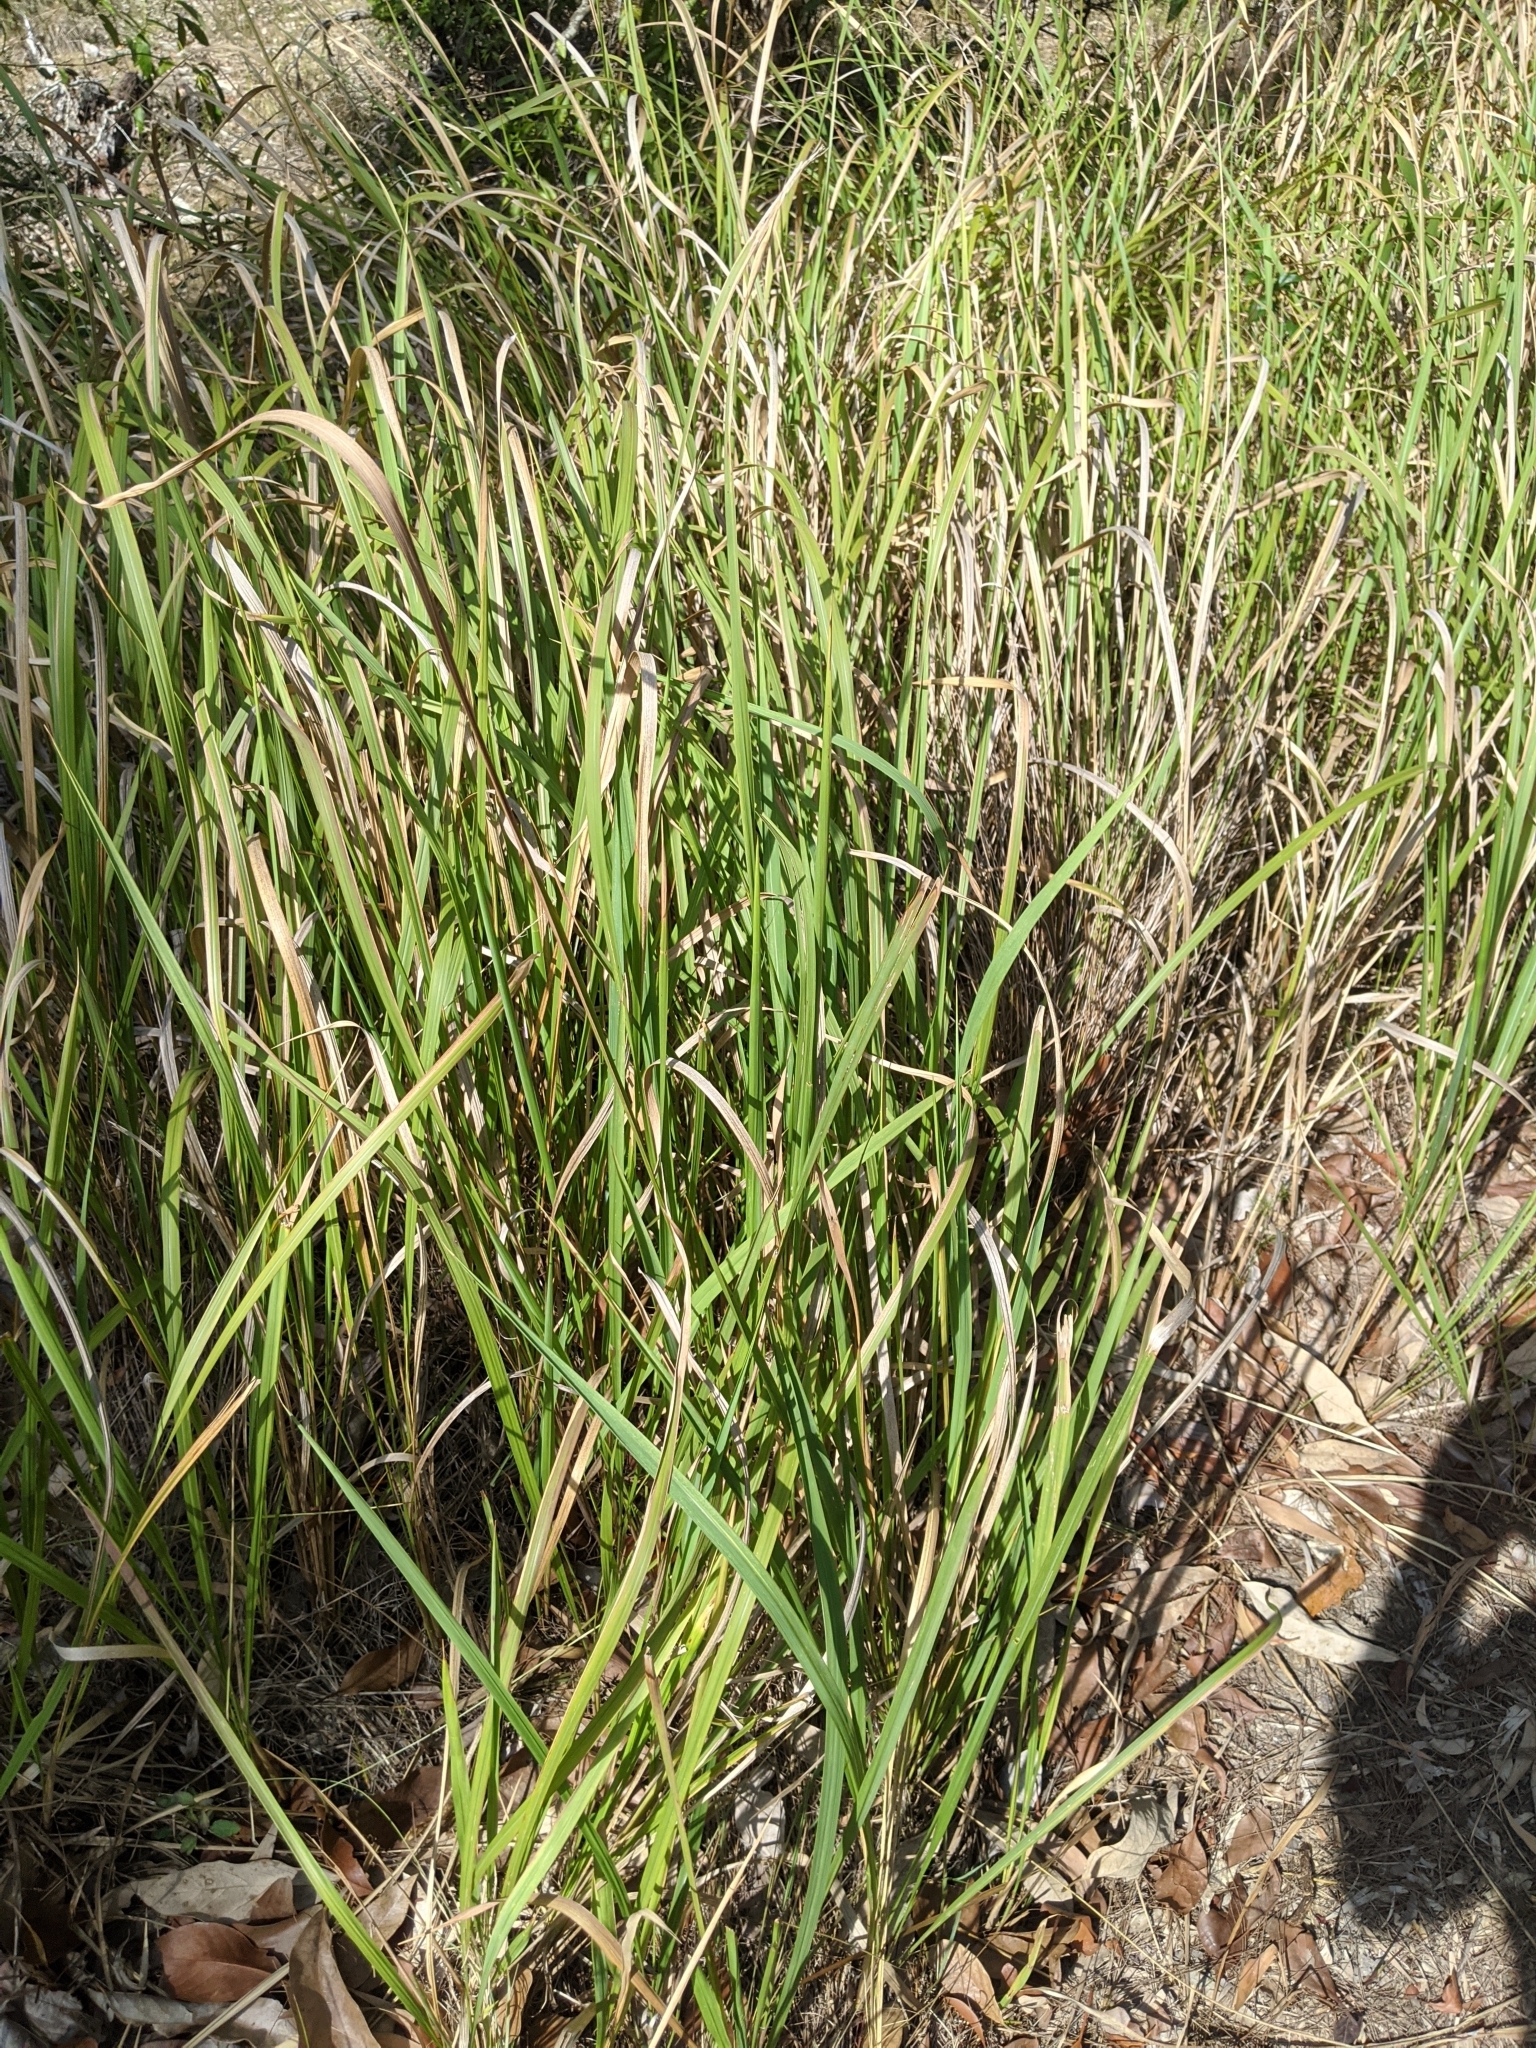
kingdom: Plantae
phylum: Tracheophyta
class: Liliopsida
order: Poales
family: Poaceae
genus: Imperata
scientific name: Imperata cylindrica
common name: Cogongrass
